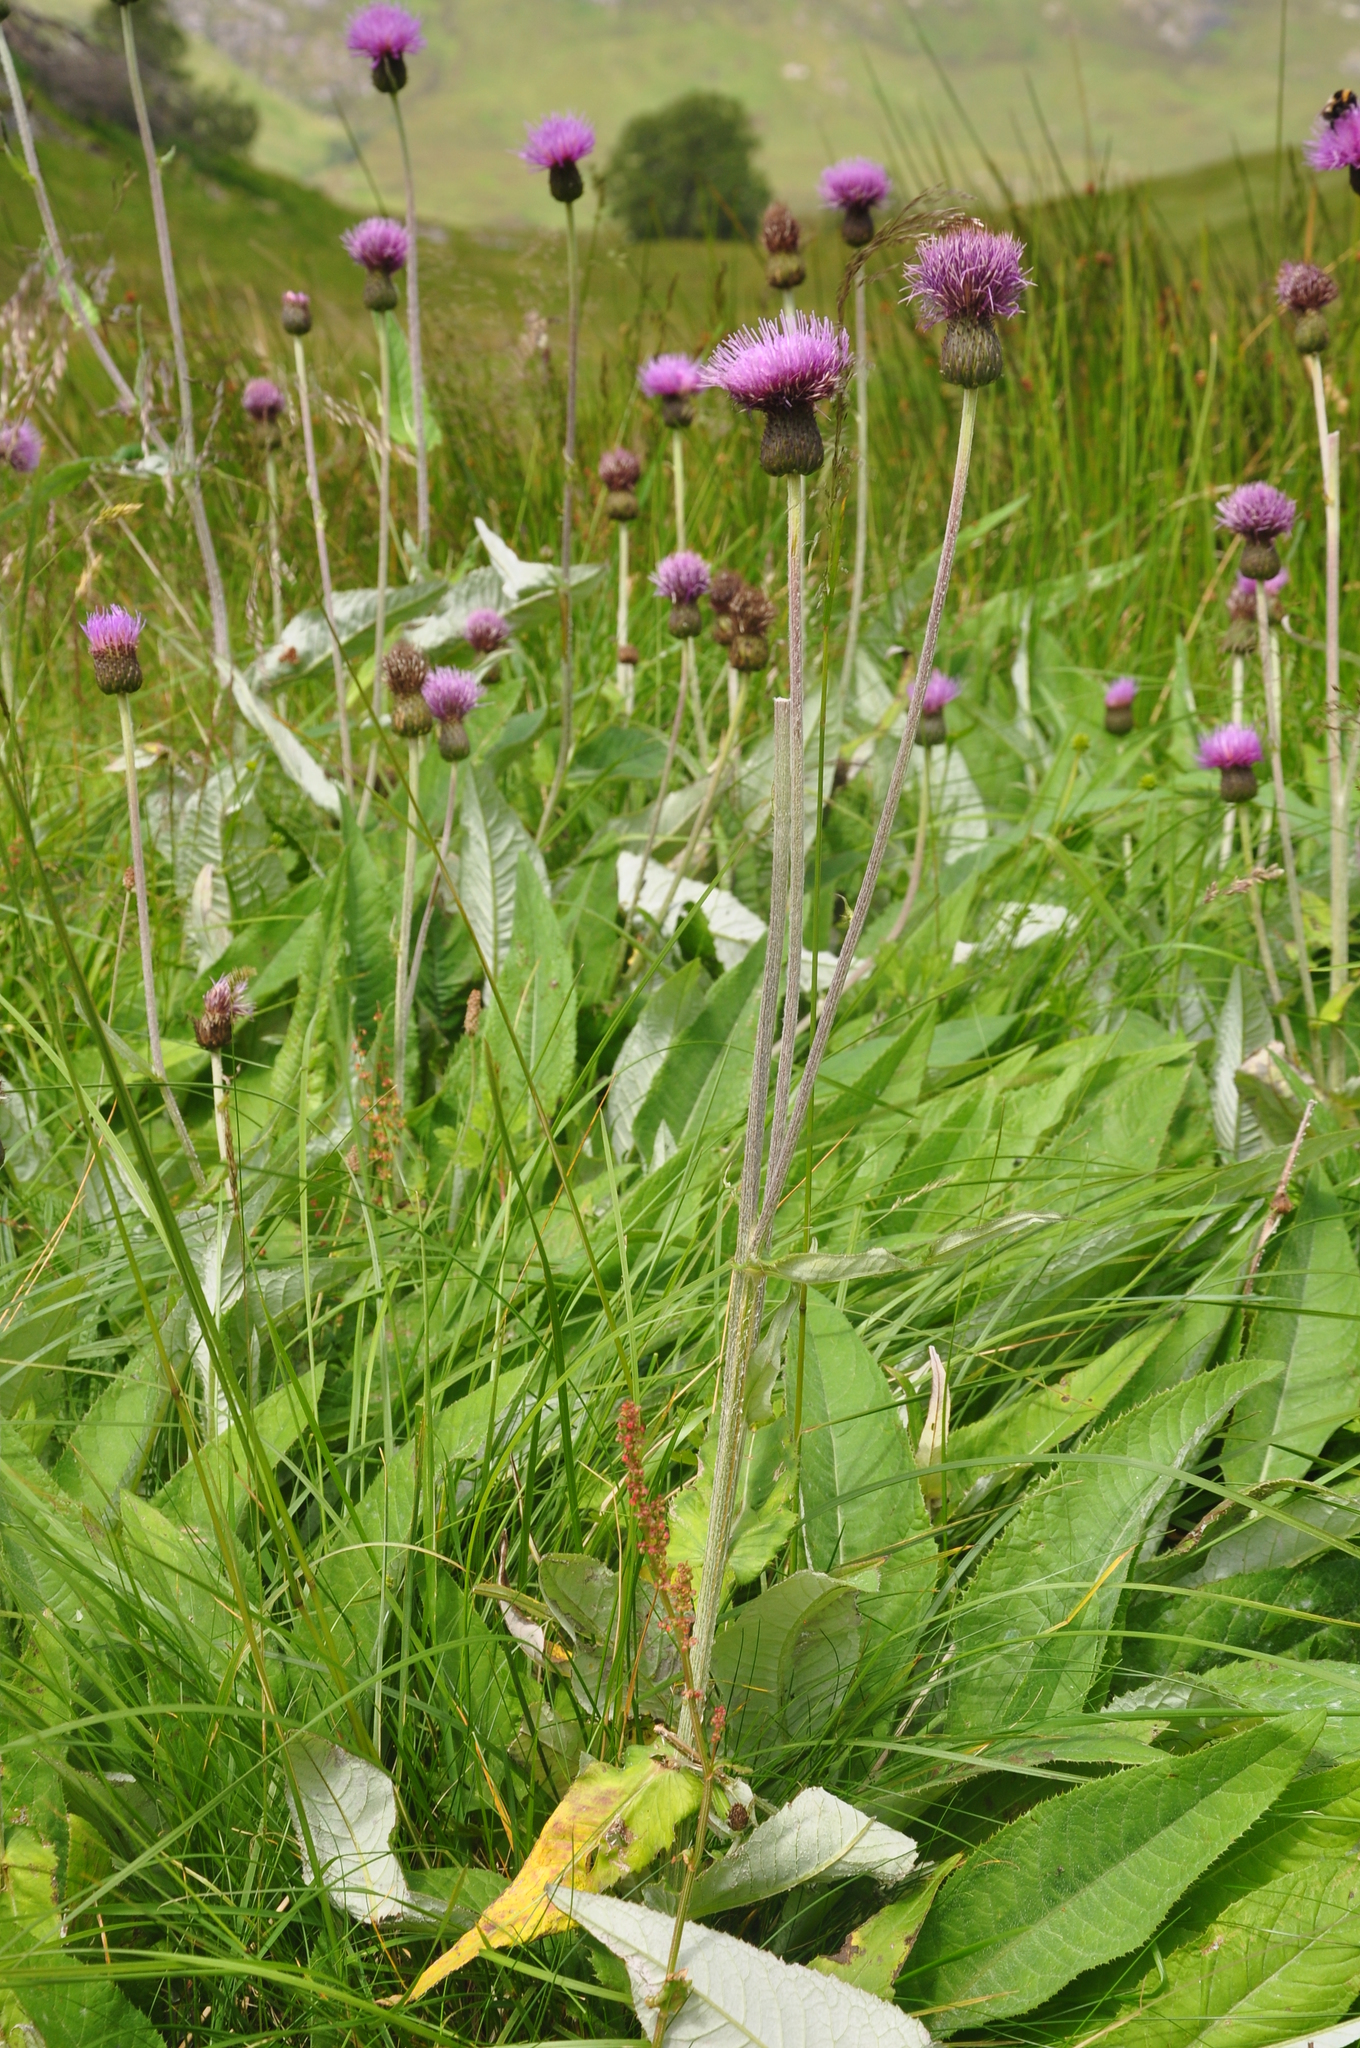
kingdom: Plantae
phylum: Tracheophyta
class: Magnoliopsida
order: Asterales
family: Asteraceae
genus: Cirsium
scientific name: Cirsium heterophyllum
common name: Melancholy thistle
